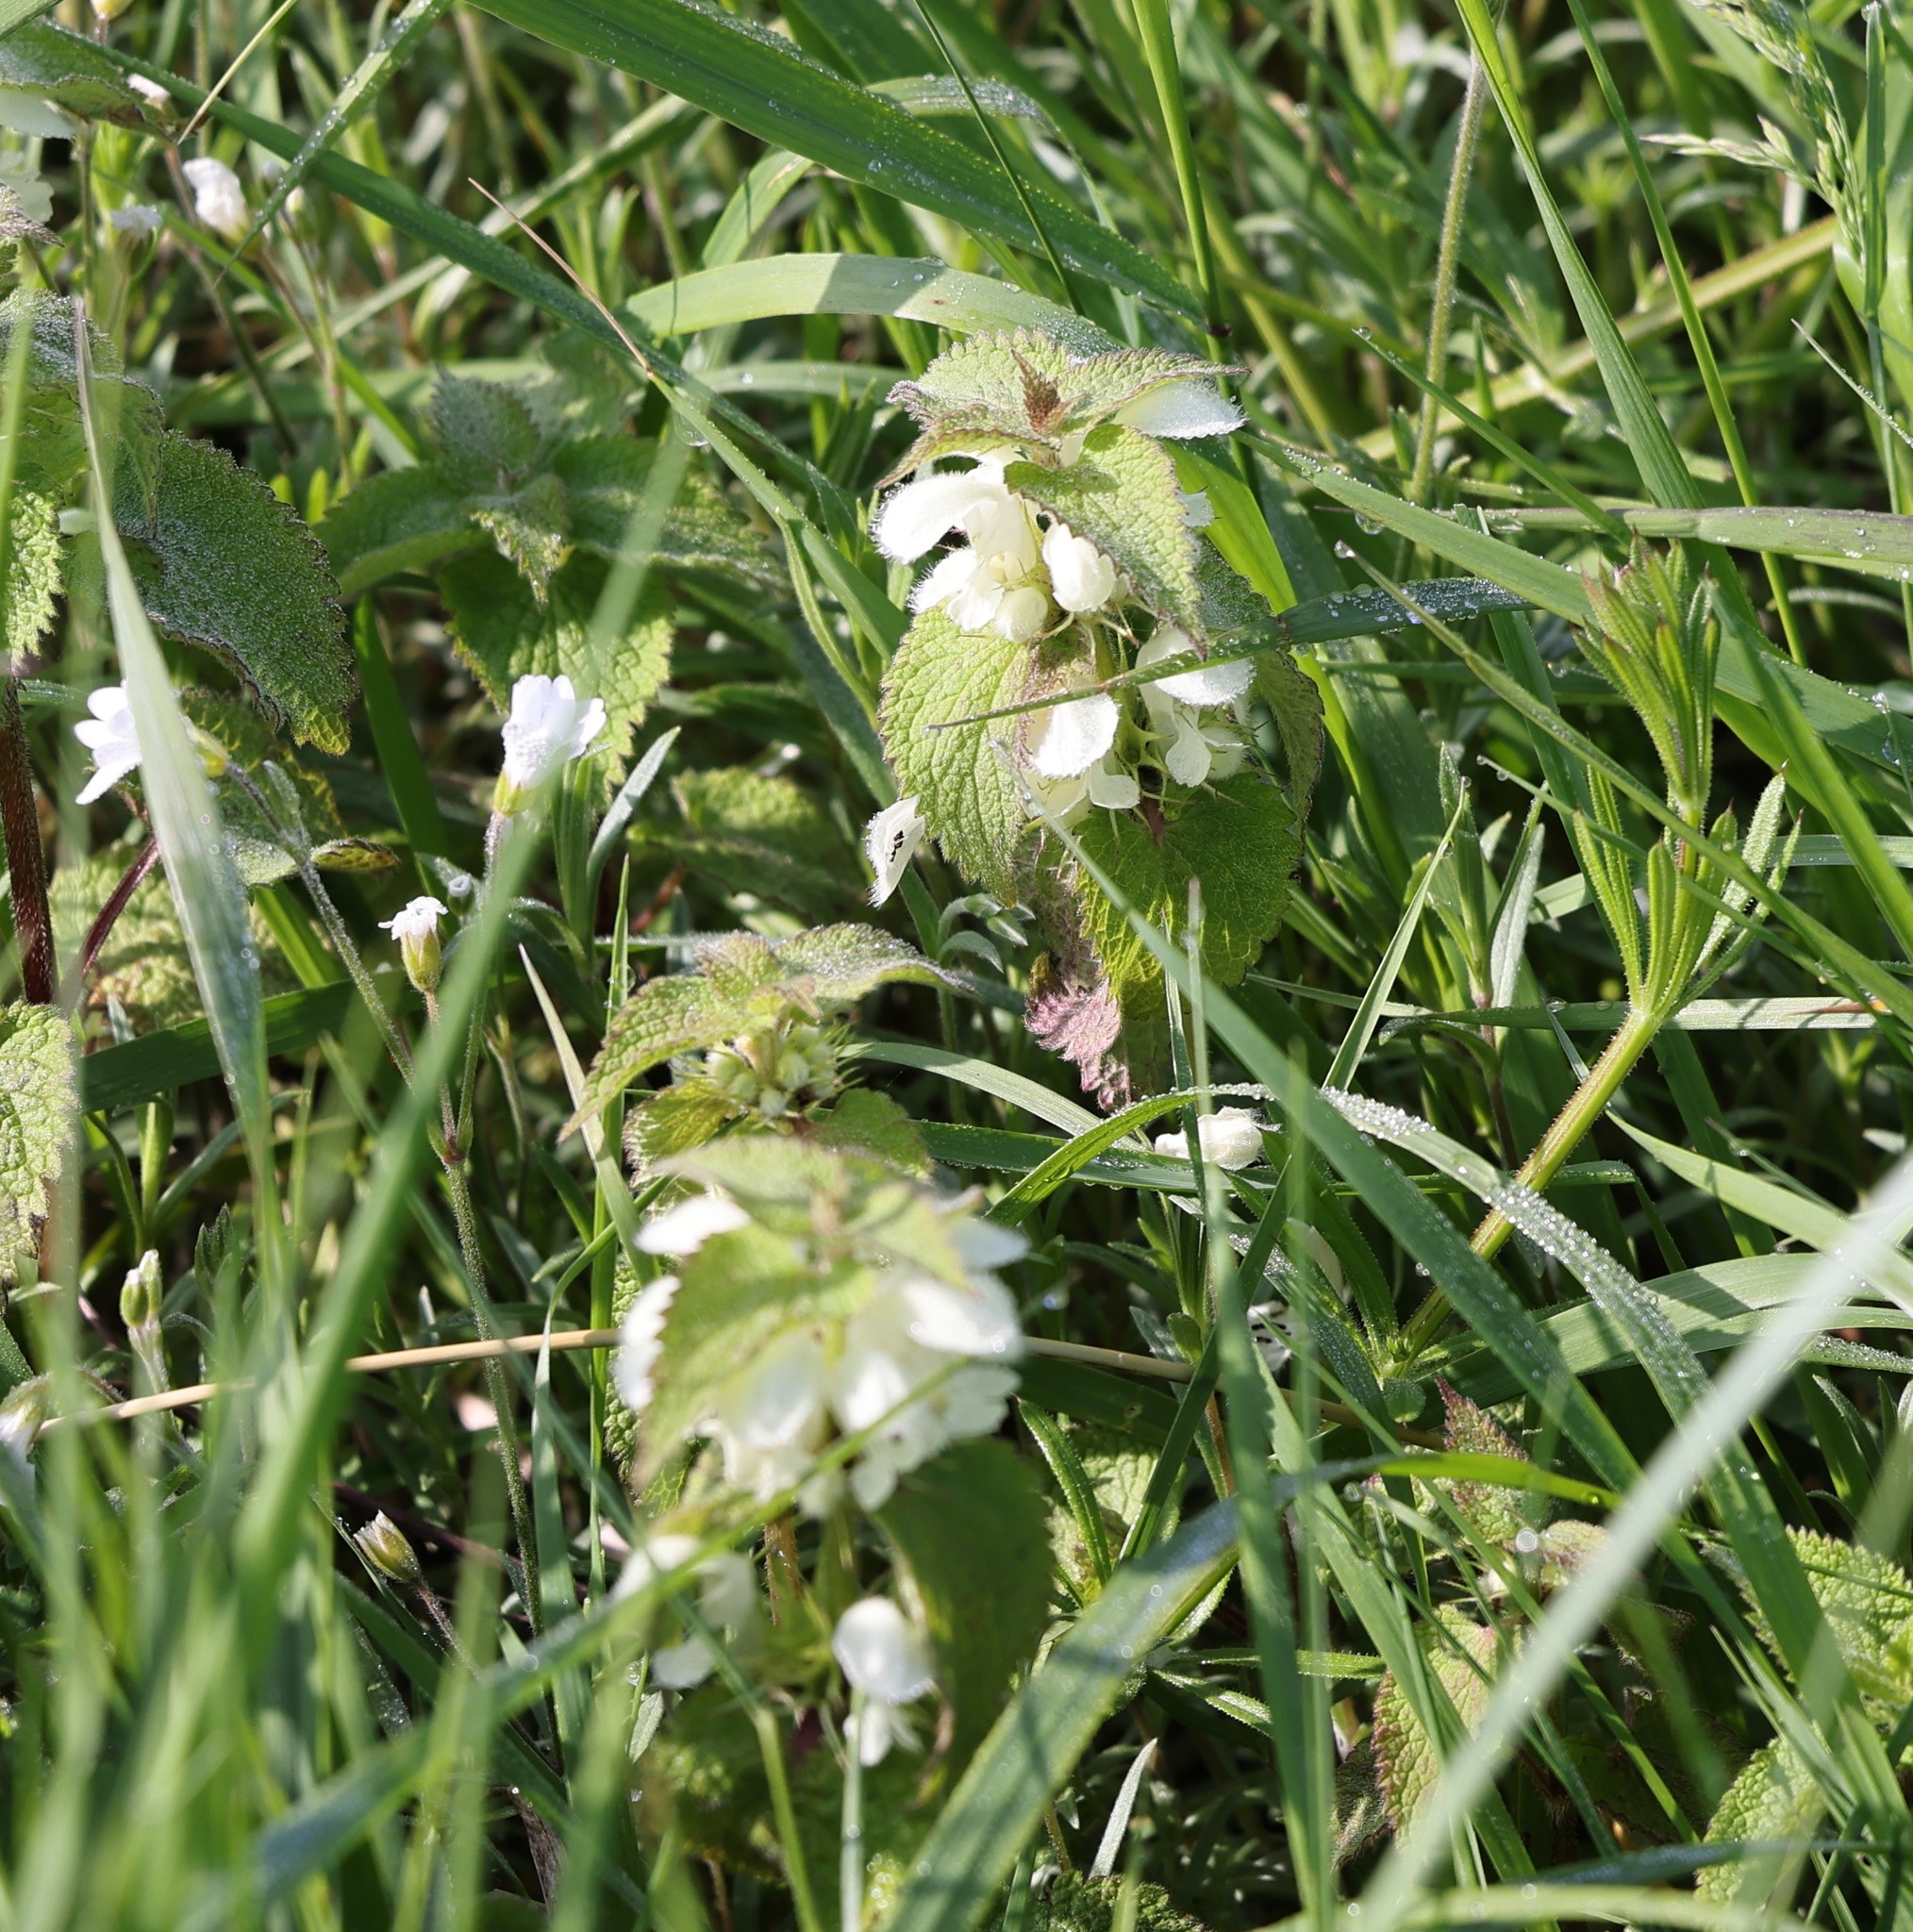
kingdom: Plantae
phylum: Tracheophyta
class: Magnoliopsida
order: Lamiales
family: Lamiaceae
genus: Lamium
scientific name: Lamium album
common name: White dead-nettle
